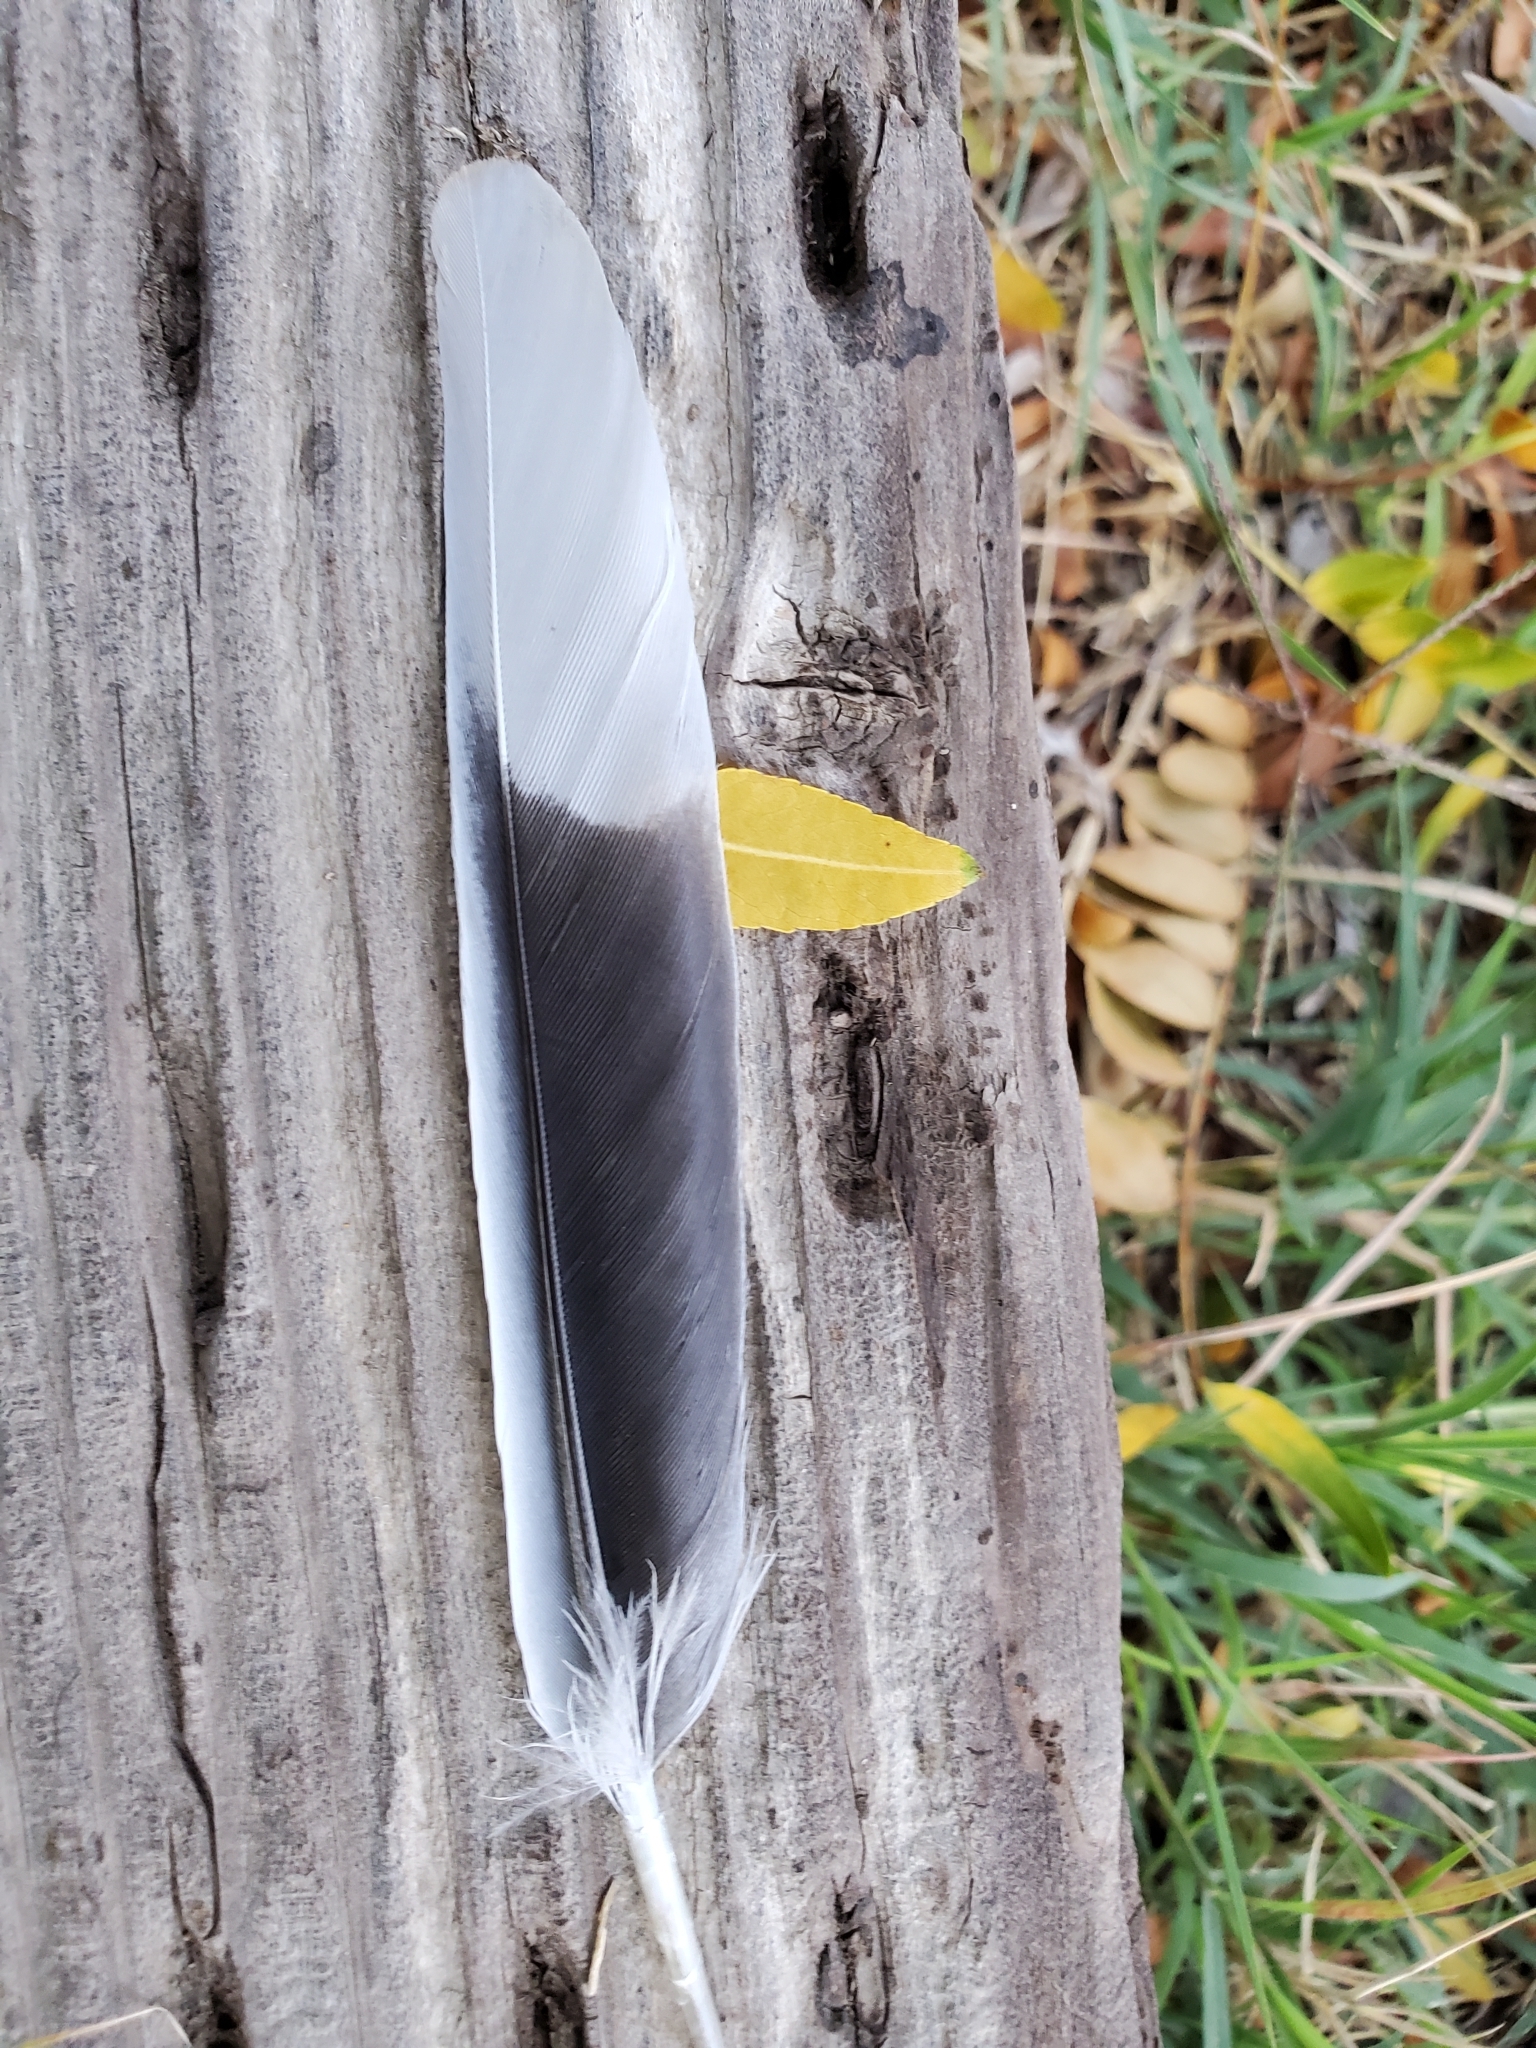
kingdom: Animalia
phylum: Chordata
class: Aves
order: Columbiformes
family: Columbidae
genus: Streptopelia
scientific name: Streptopelia decaocto
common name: Eurasian collared dove
